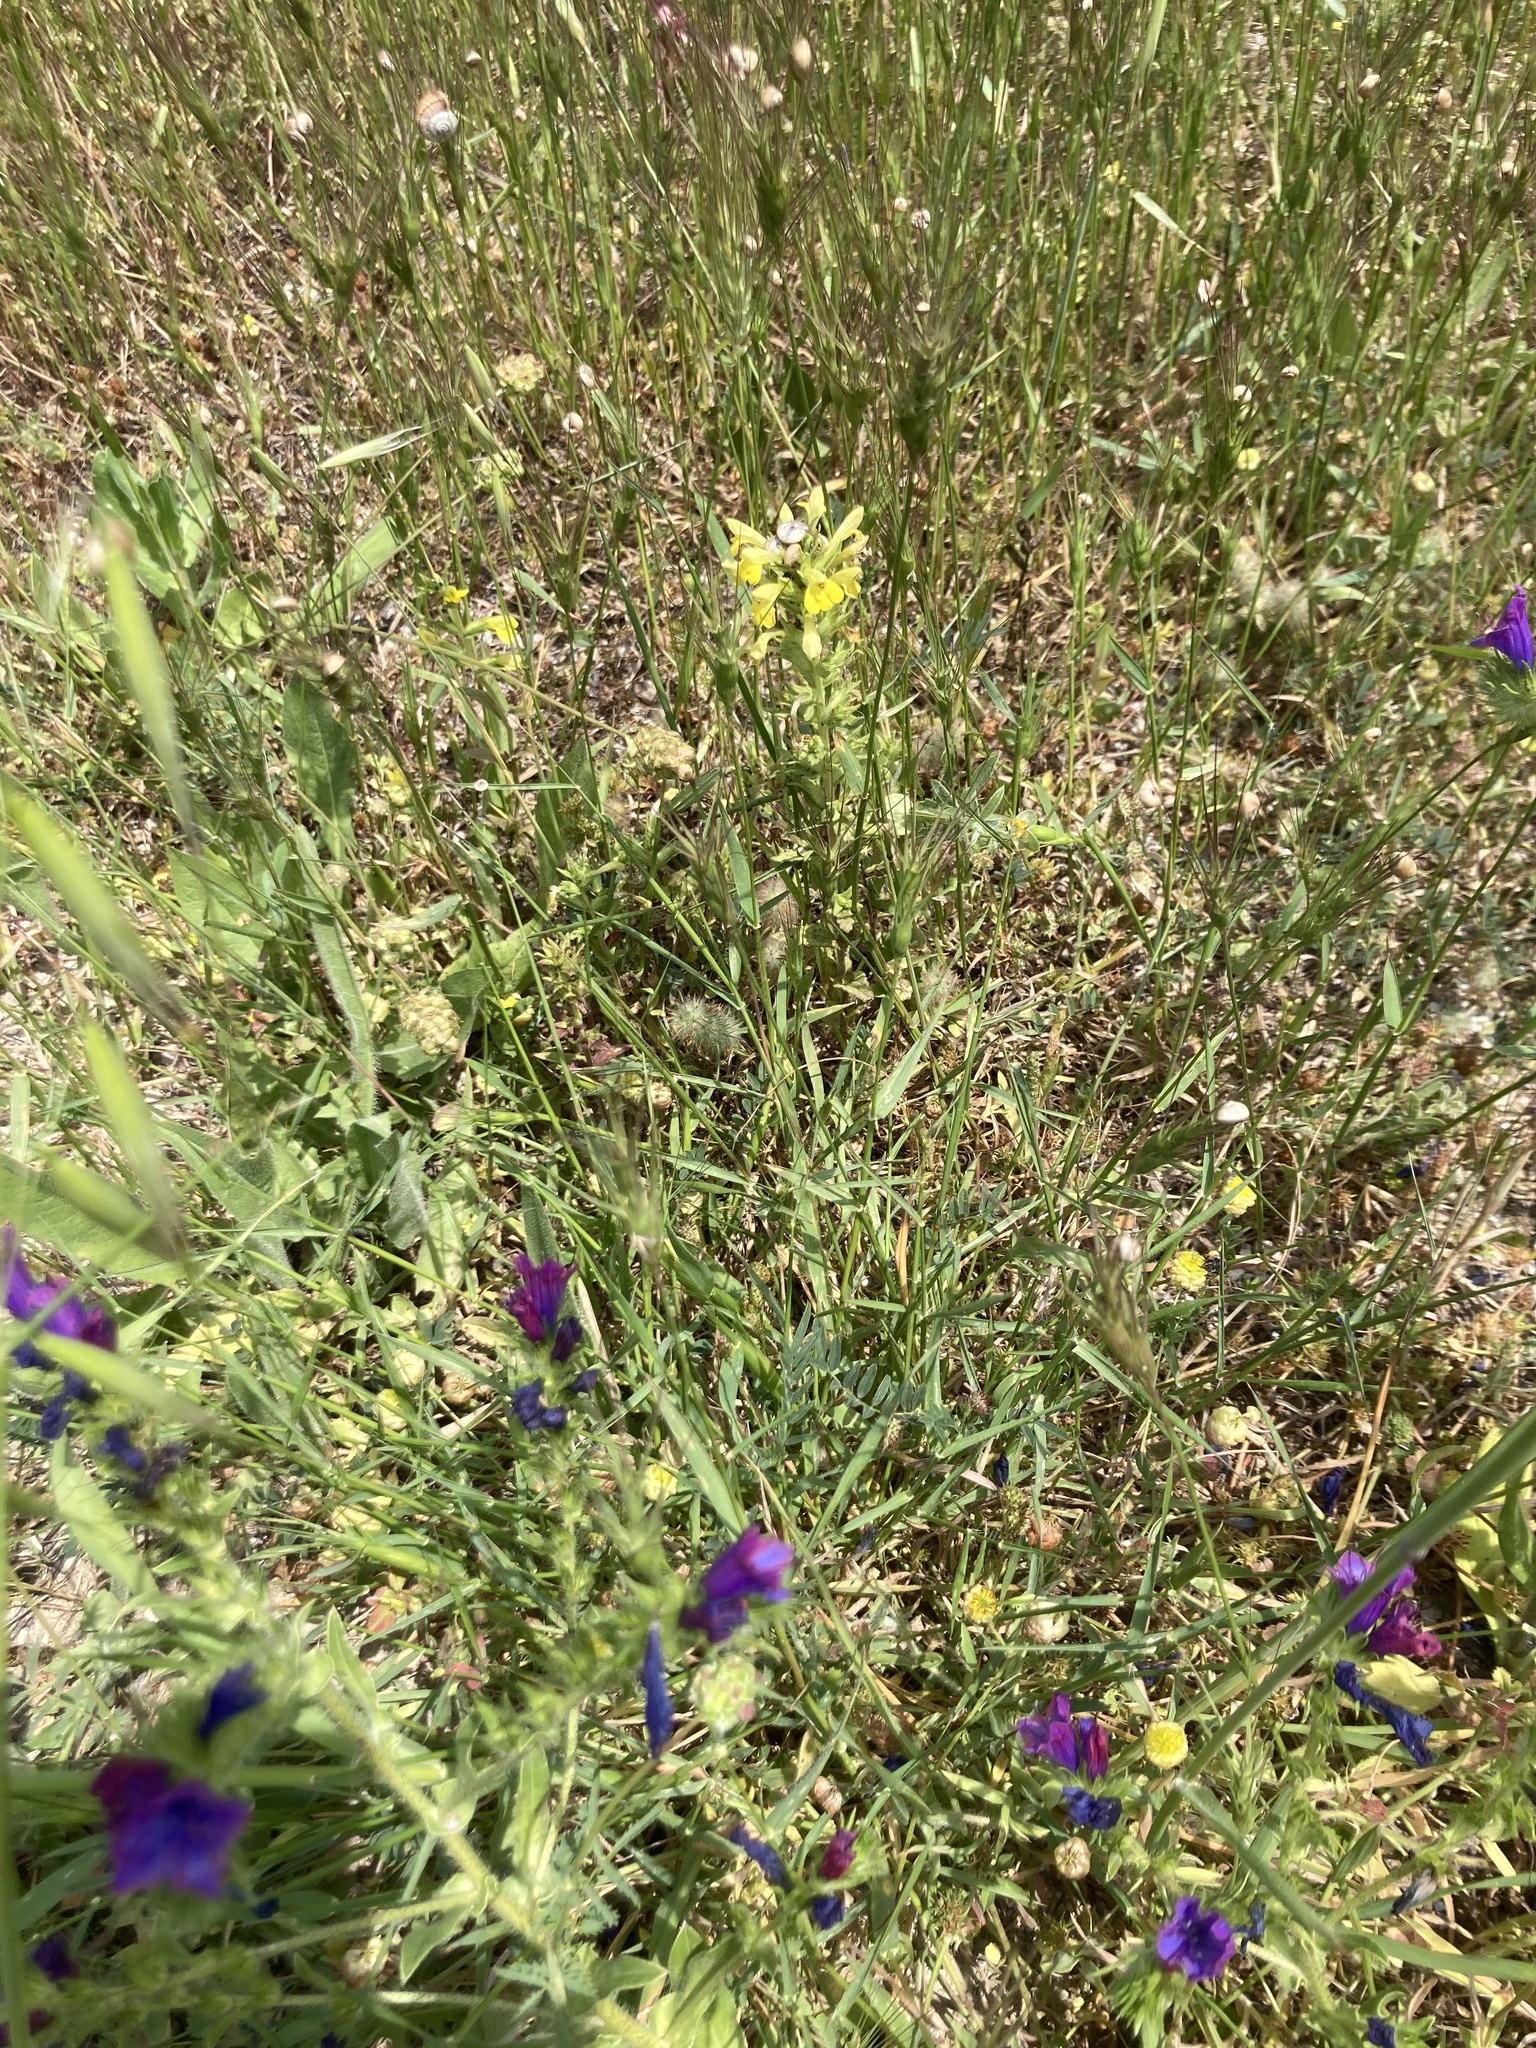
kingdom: Plantae
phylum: Tracheophyta
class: Magnoliopsida
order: Boraginales
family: Boraginaceae
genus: Echium
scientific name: Echium plantagineum
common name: Purple viper's-bugloss
